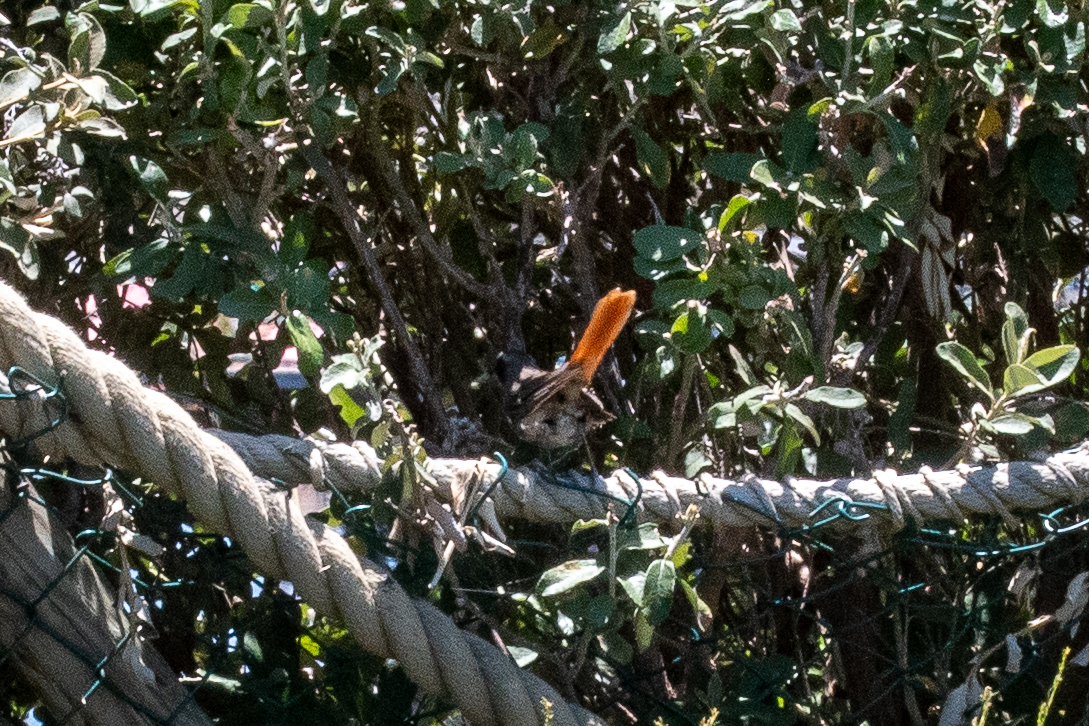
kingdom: Animalia
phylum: Chordata
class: Aves
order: Passeriformes
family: Muscicapidae
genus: Cossypha
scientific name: Cossypha caffra
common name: Cape robin-chat
